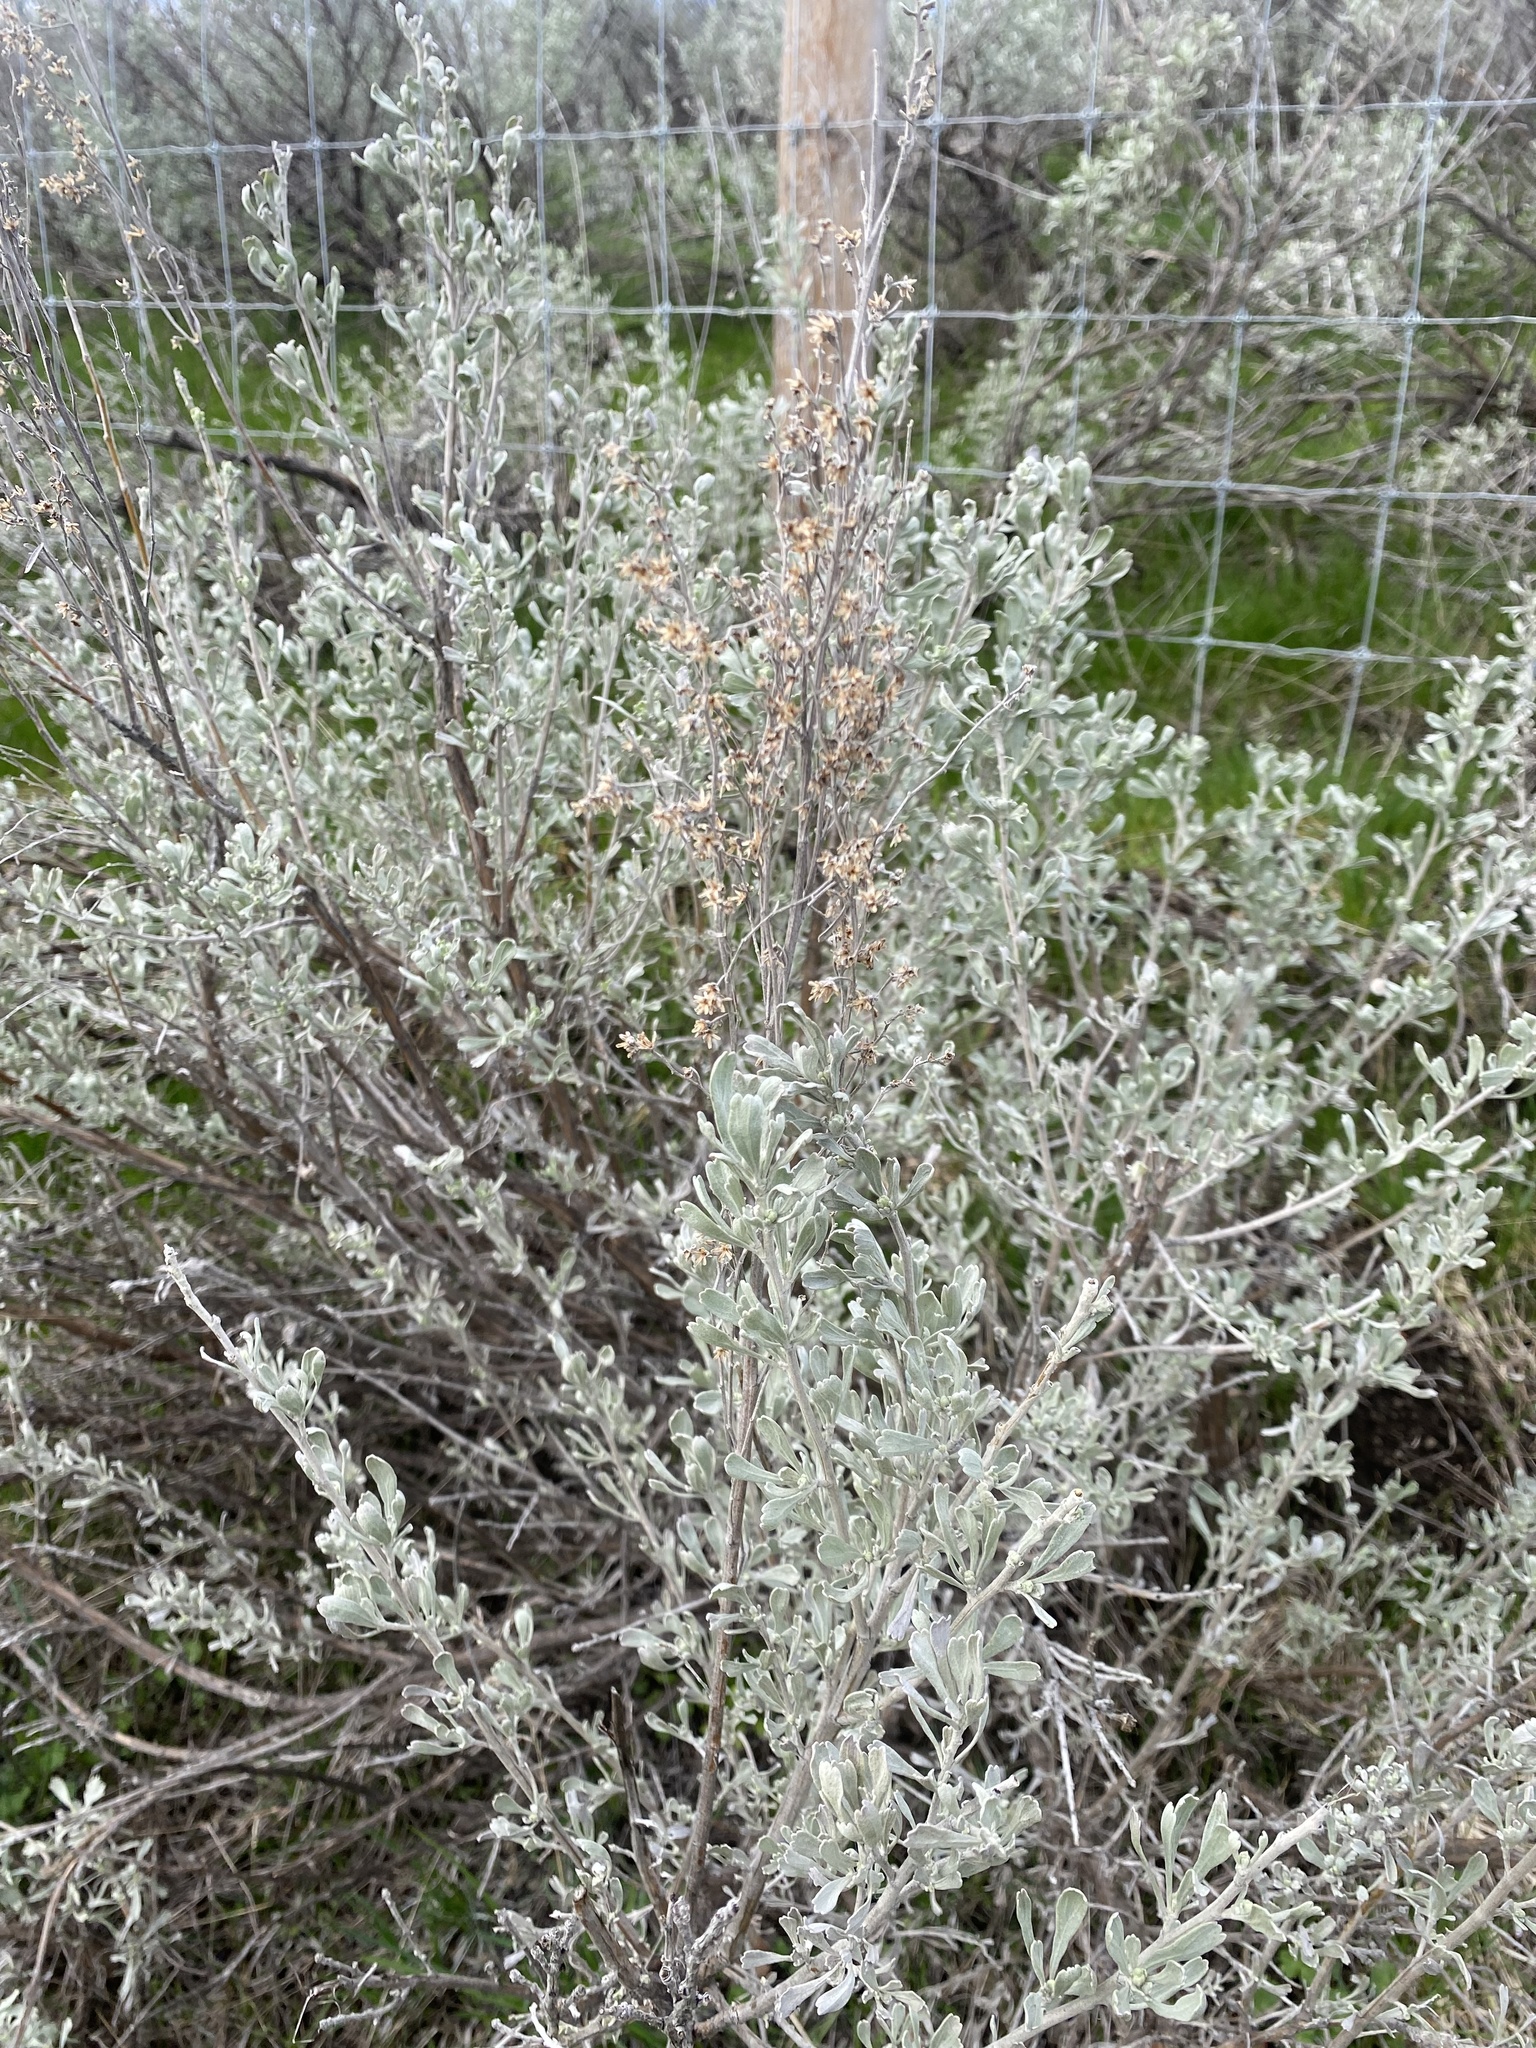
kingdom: Plantae
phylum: Tracheophyta
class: Magnoliopsida
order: Asterales
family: Asteraceae
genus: Artemisia
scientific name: Artemisia tridentata
